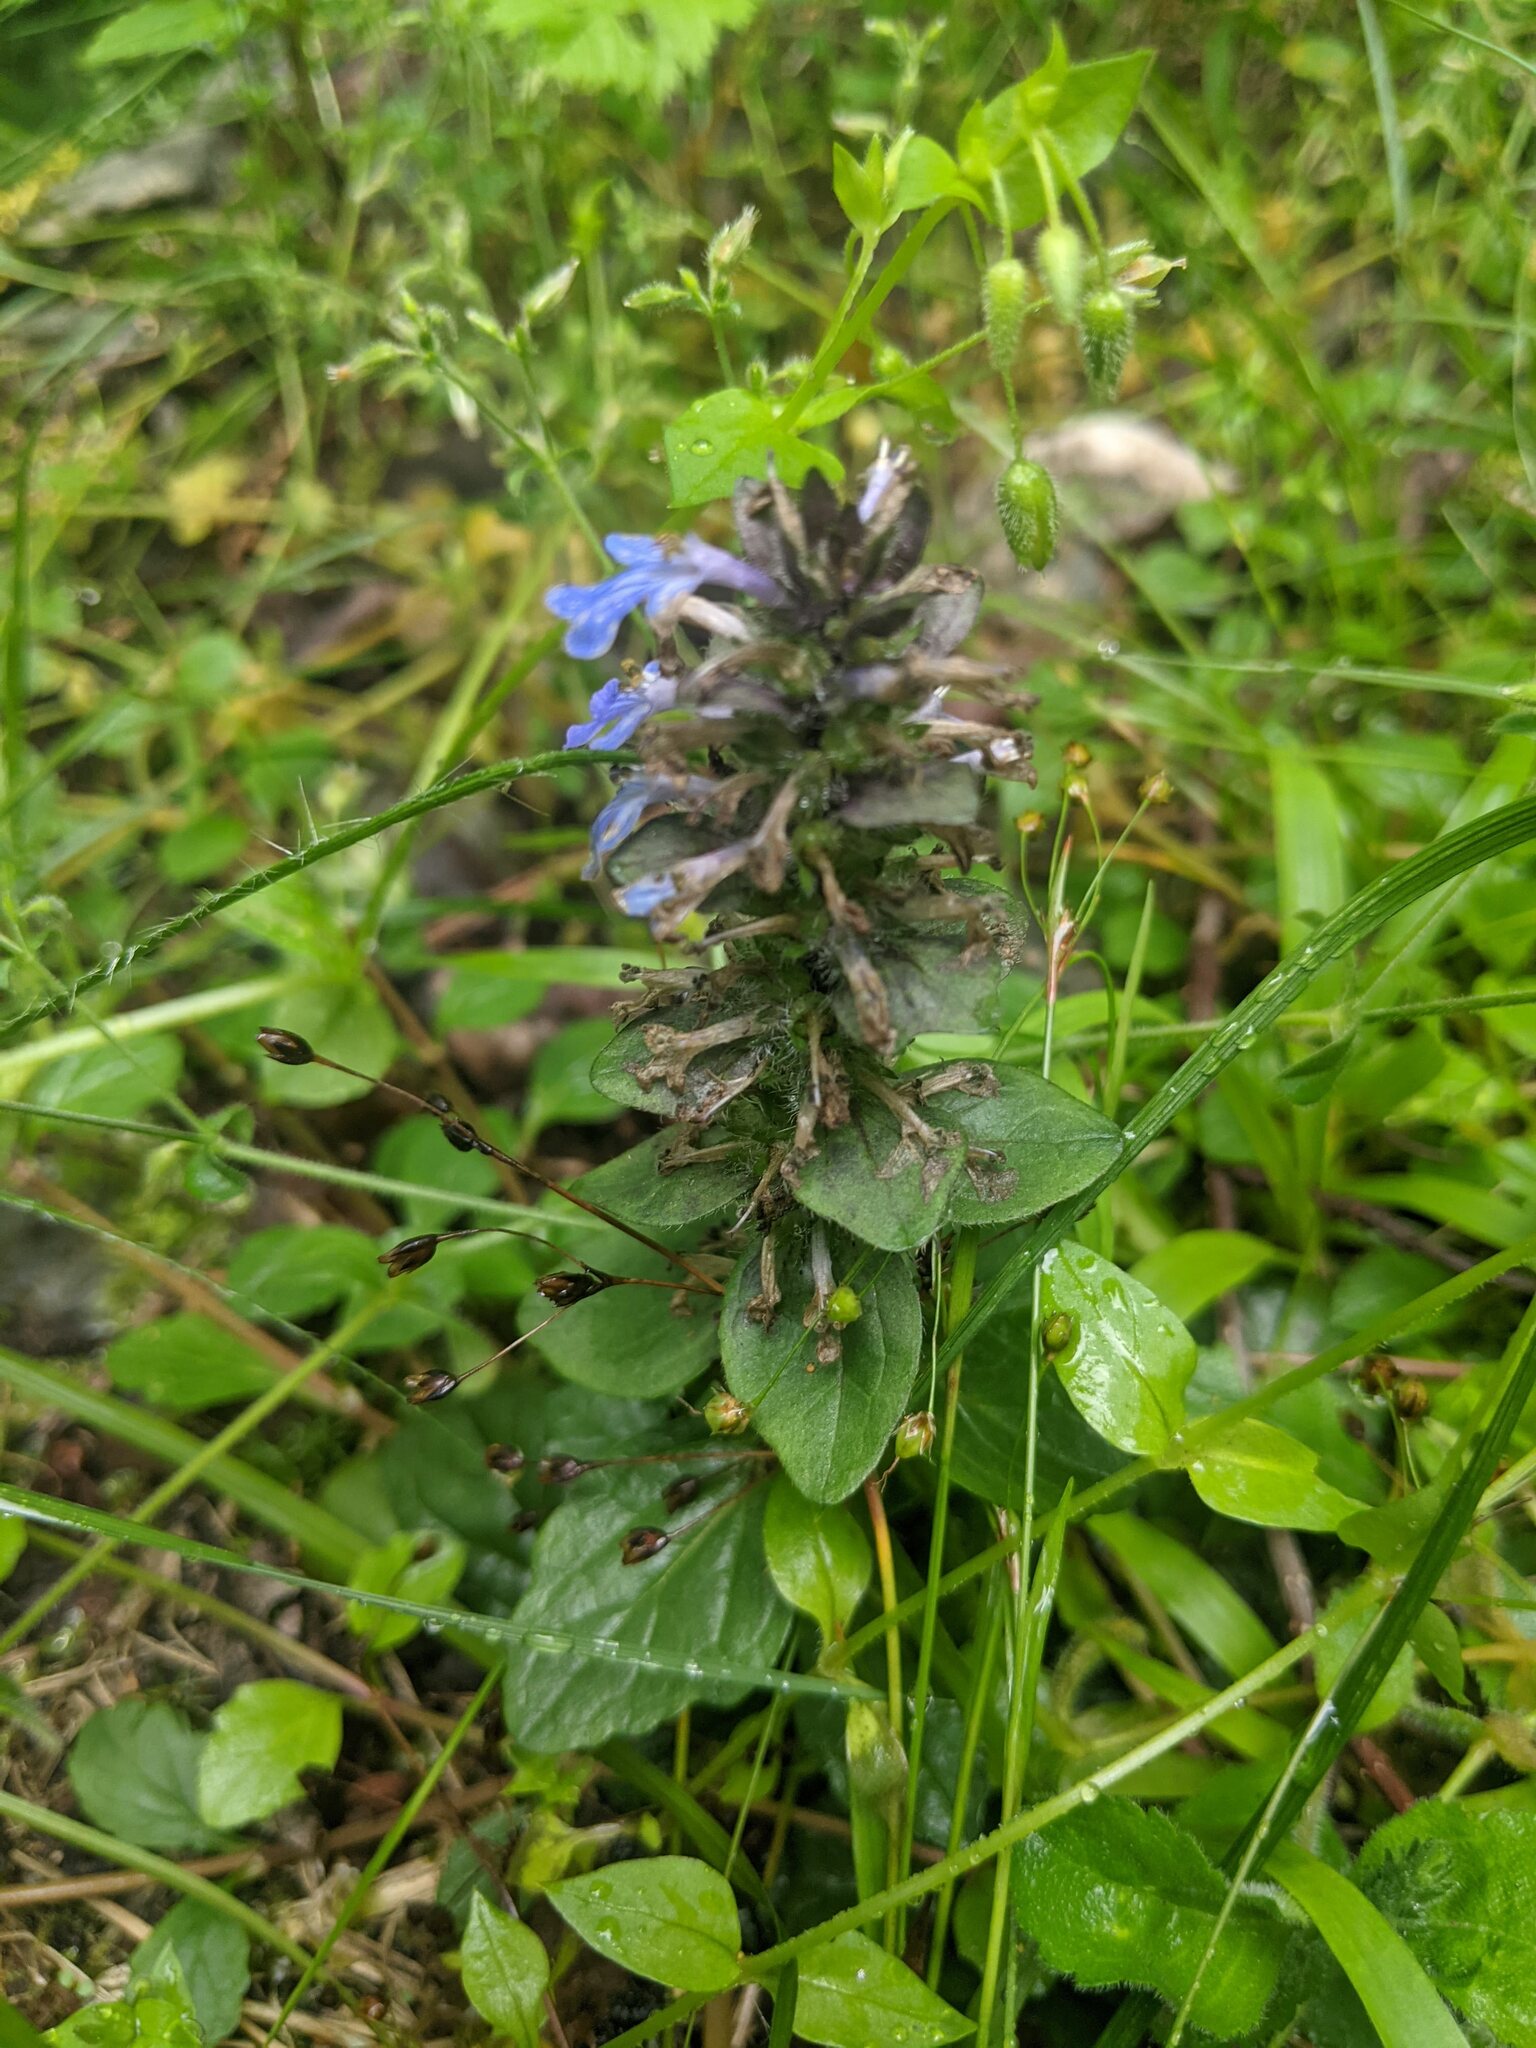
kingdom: Plantae
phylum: Tracheophyta
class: Magnoliopsida
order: Lamiales
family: Lamiaceae
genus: Ajuga
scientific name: Ajuga reptans
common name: Bugle
